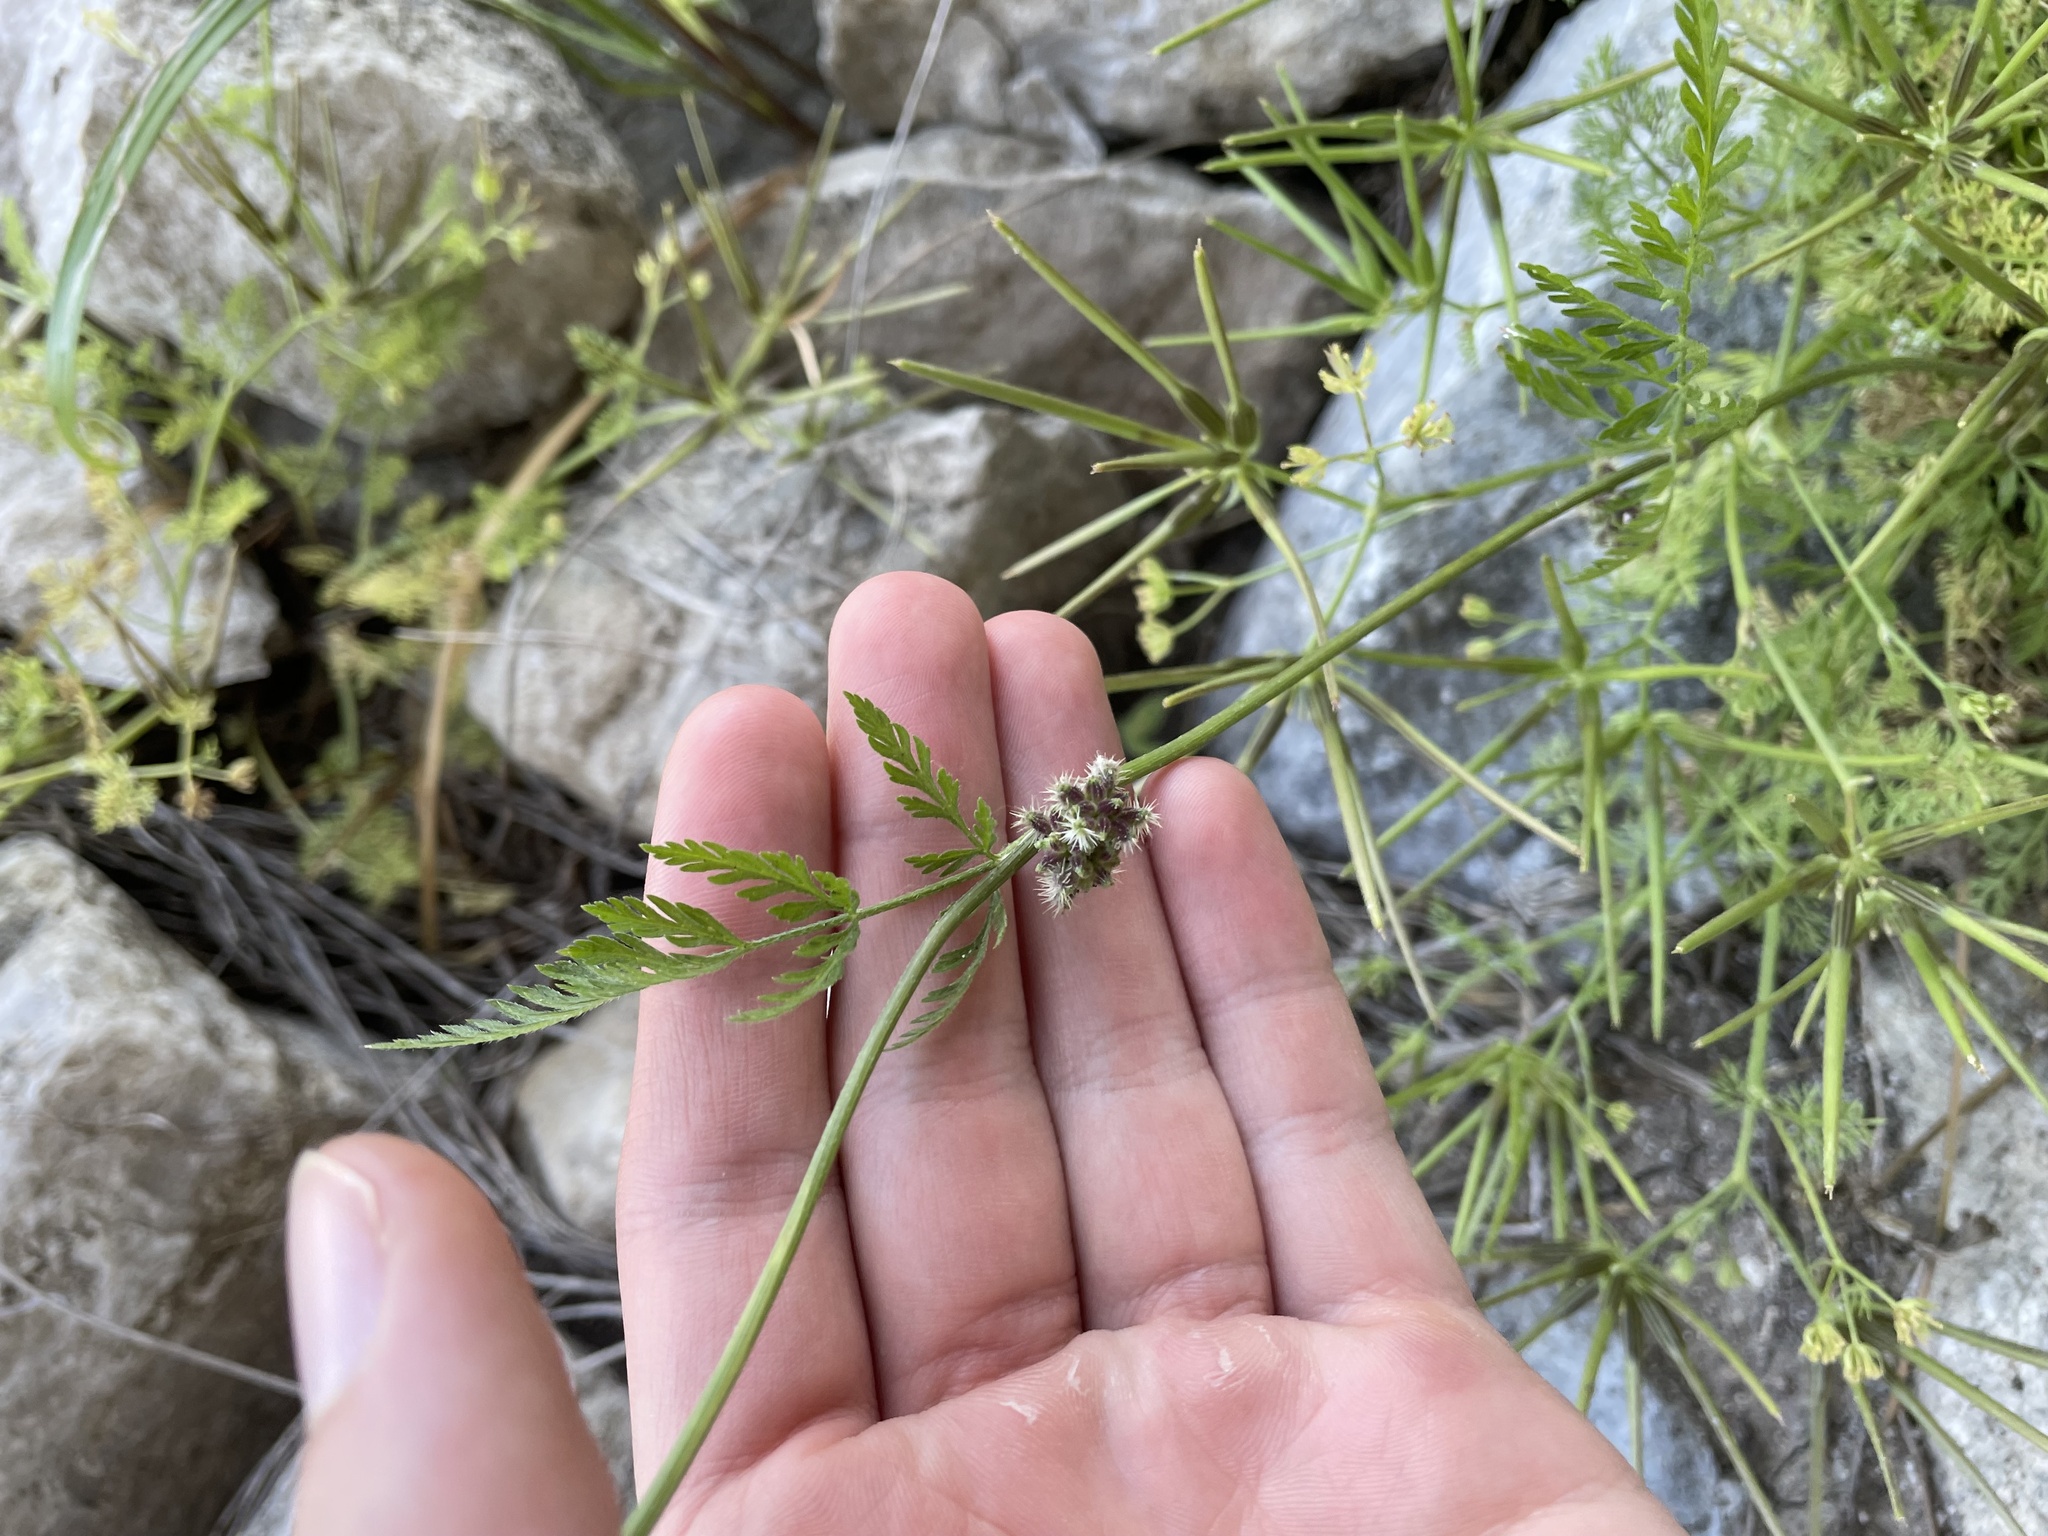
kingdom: Plantae
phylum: Tracheophyta
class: Magnoliopsida
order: Apiales
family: Apiaceae
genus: Torilis
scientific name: Torilis nodosa
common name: Knotted hedge-parsley
